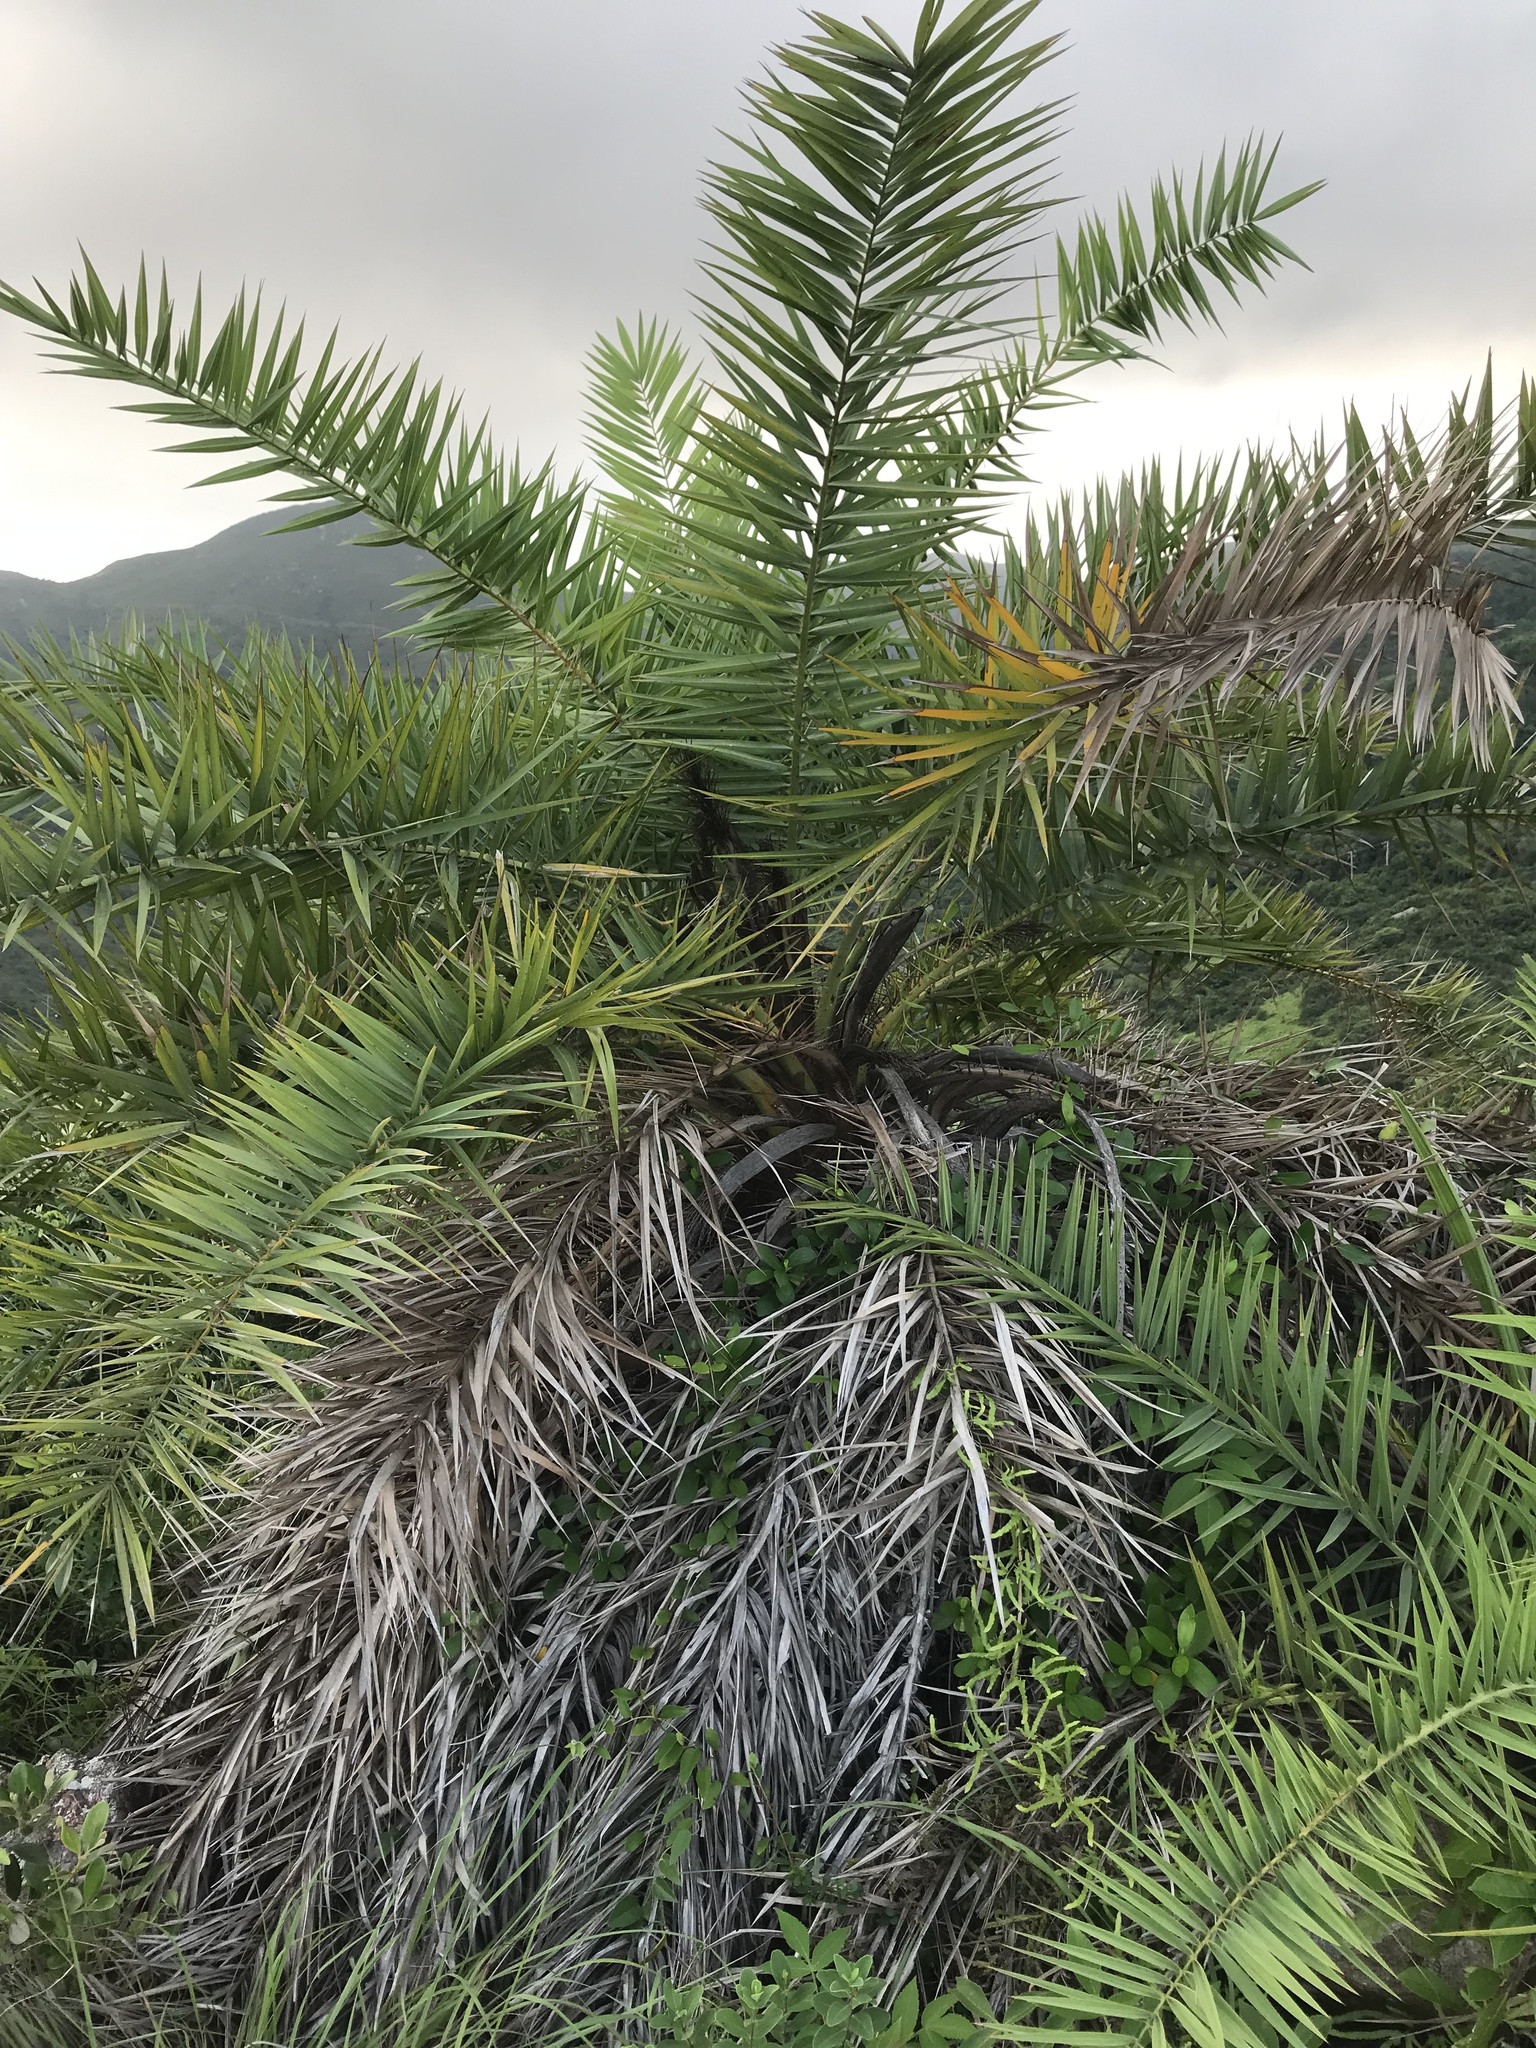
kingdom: Plantae
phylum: Tracheophyta
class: Liliopsida
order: Arecales
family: Arecaceae
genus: Phoenix
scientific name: Phoenix loureiroi
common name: Loureiro's palm
